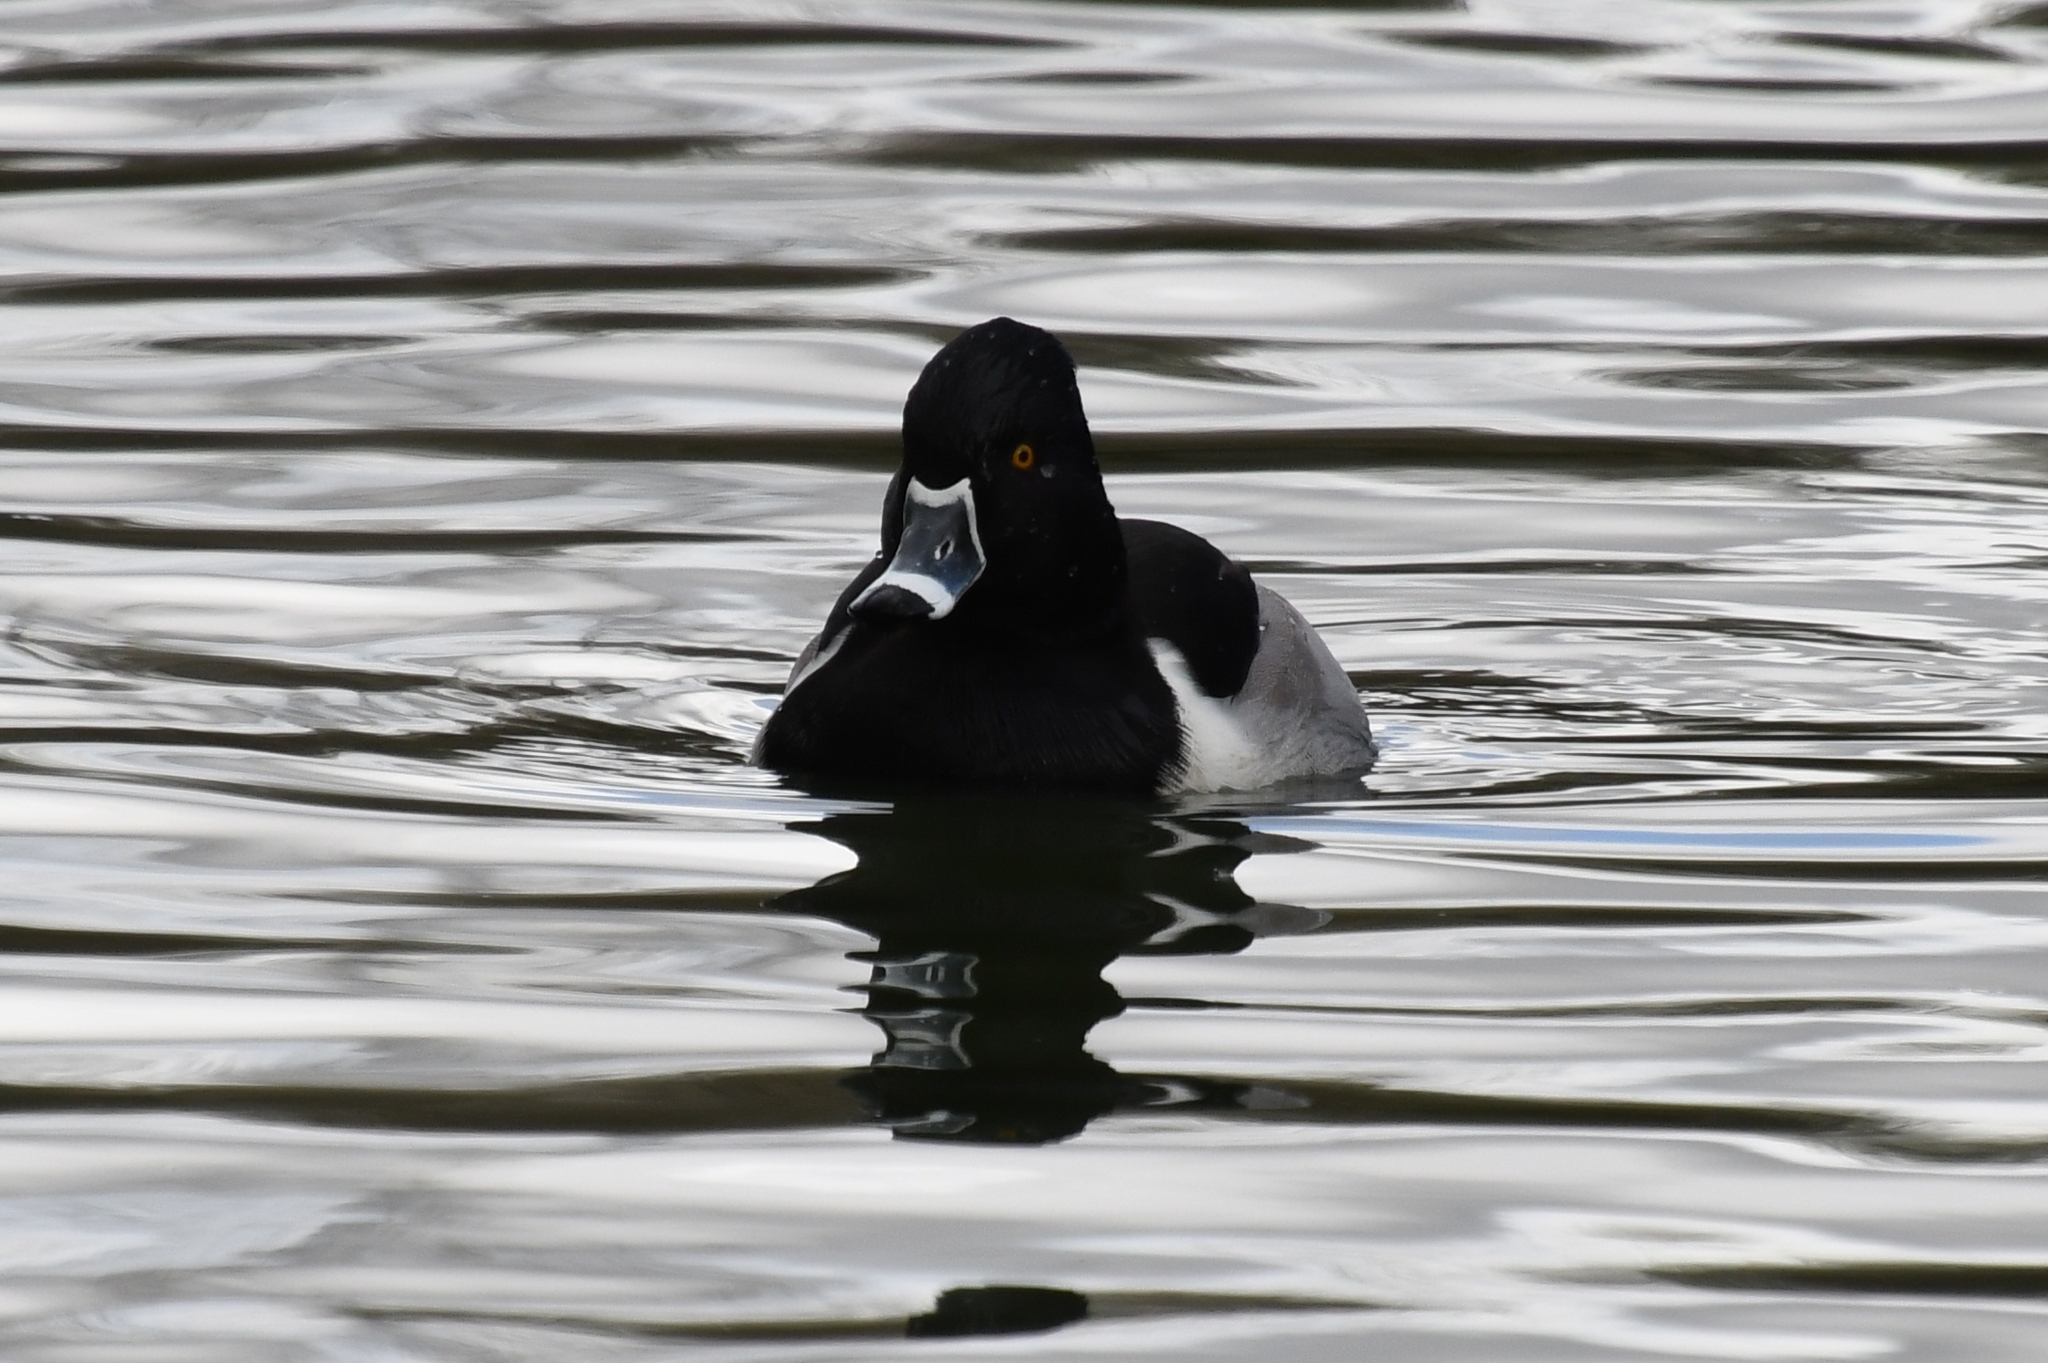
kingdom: Animalia
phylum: Chordata
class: Aves
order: Anseriformes
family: Anatidae
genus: Aythya
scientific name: Aythya collaris
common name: Ring-necked duck
